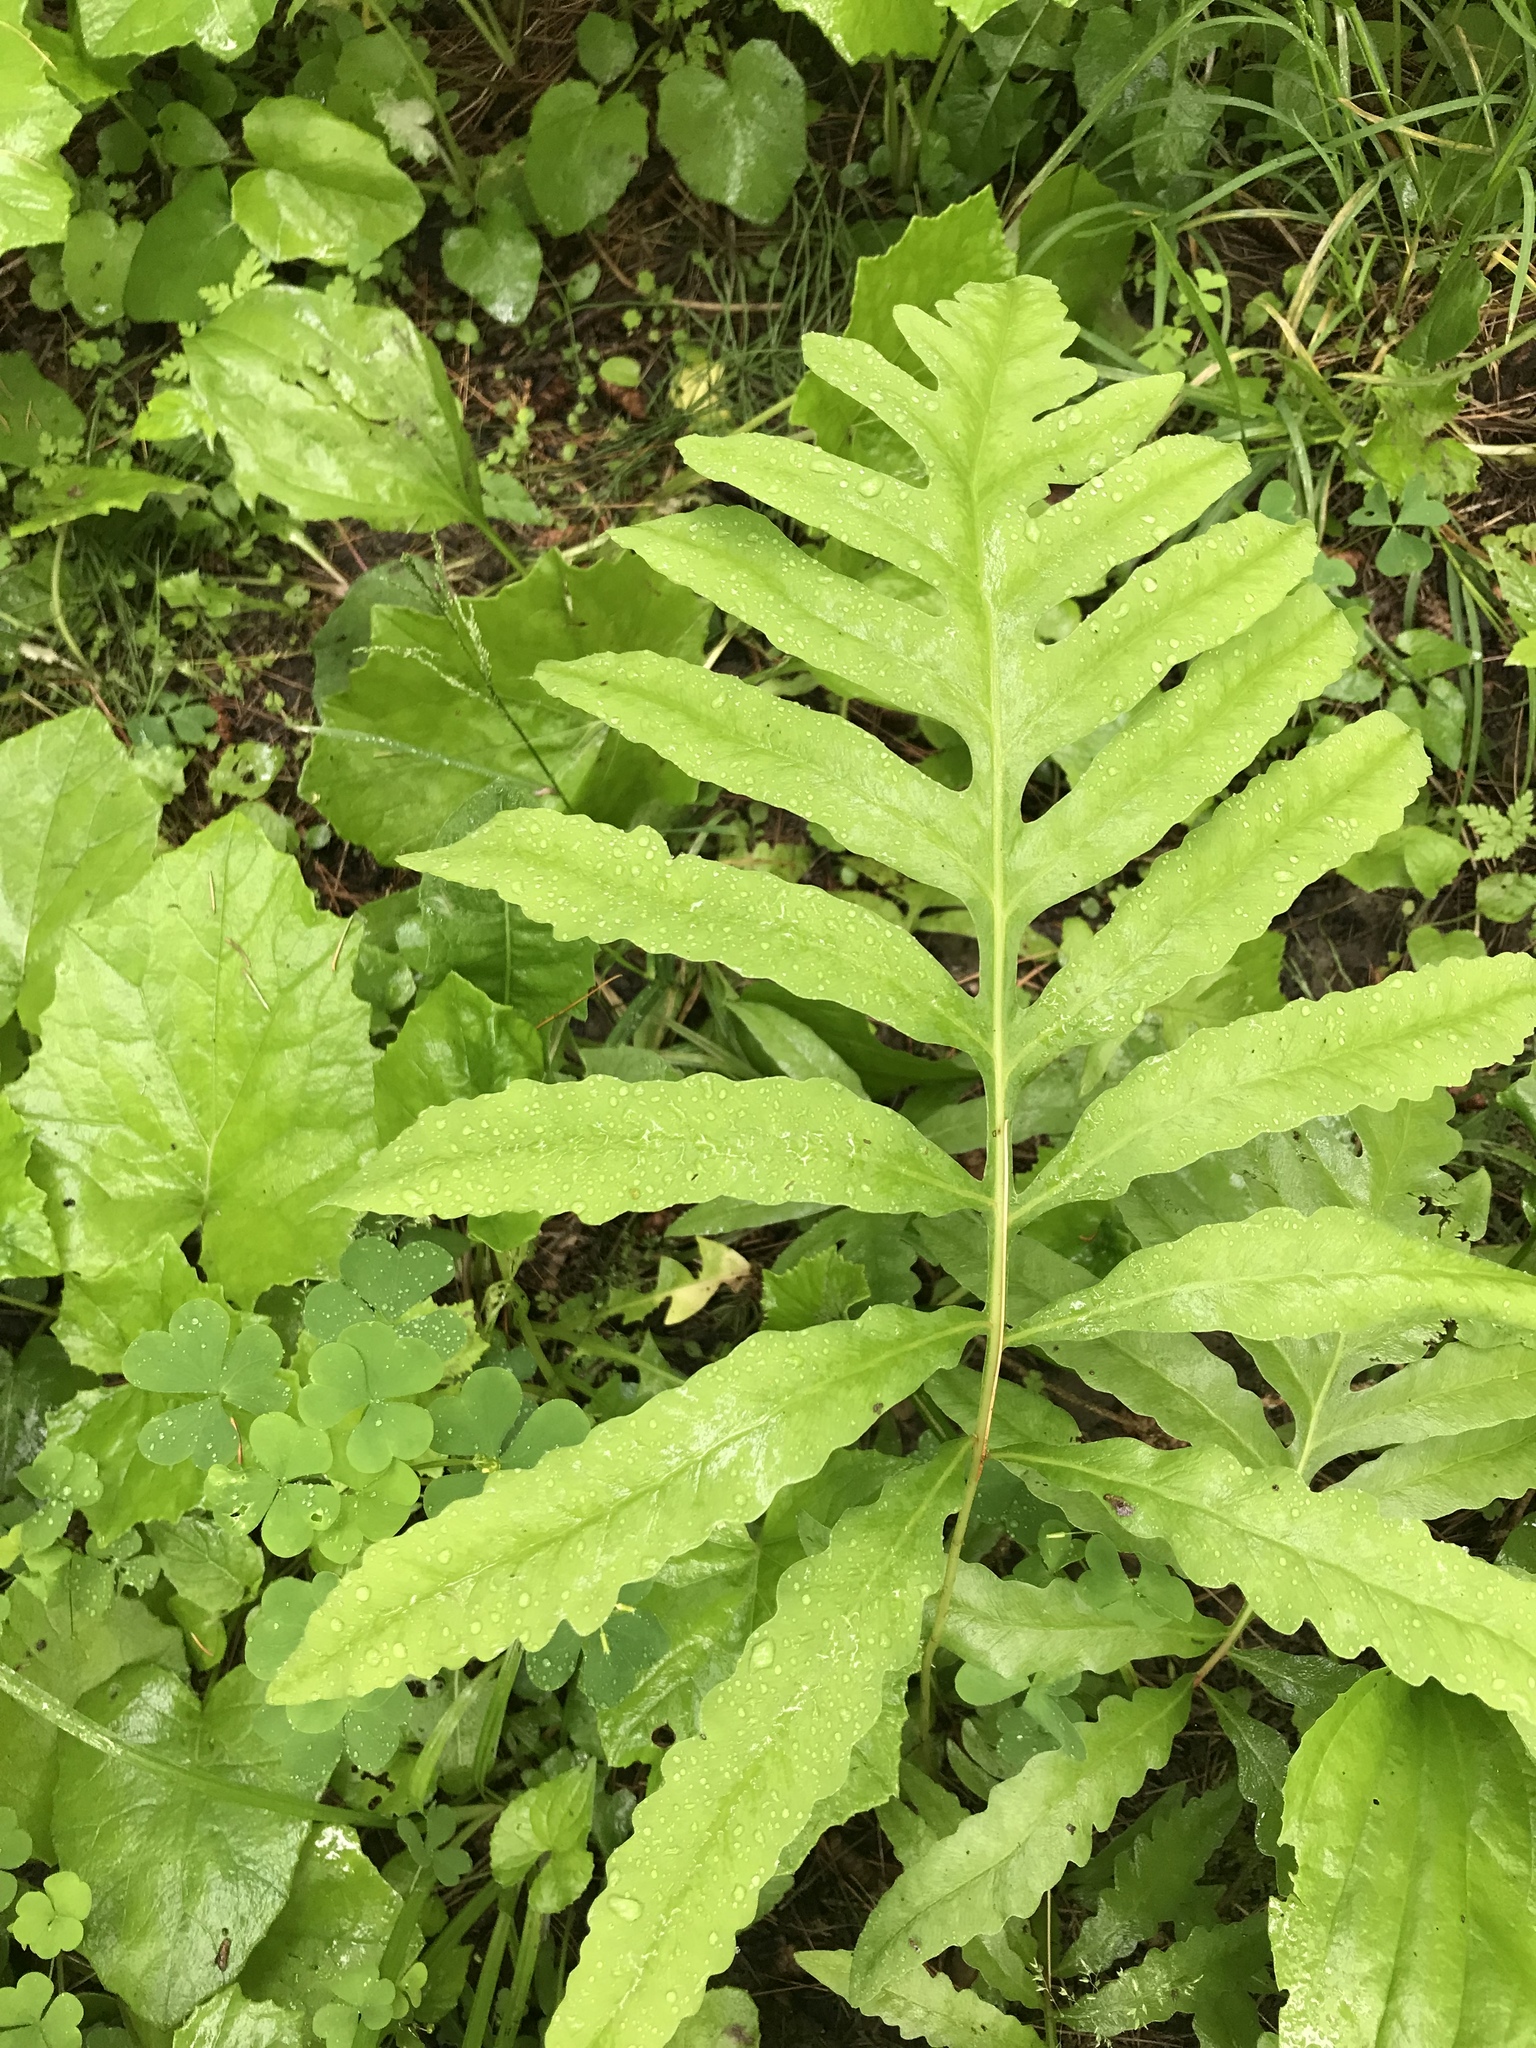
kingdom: Plantae
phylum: Tracheophyta
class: Polypodiopsida
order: Polypodiales
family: Onocleaceae
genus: Onoclea
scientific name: Onoclea sensibilis
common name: Sensitive fern
